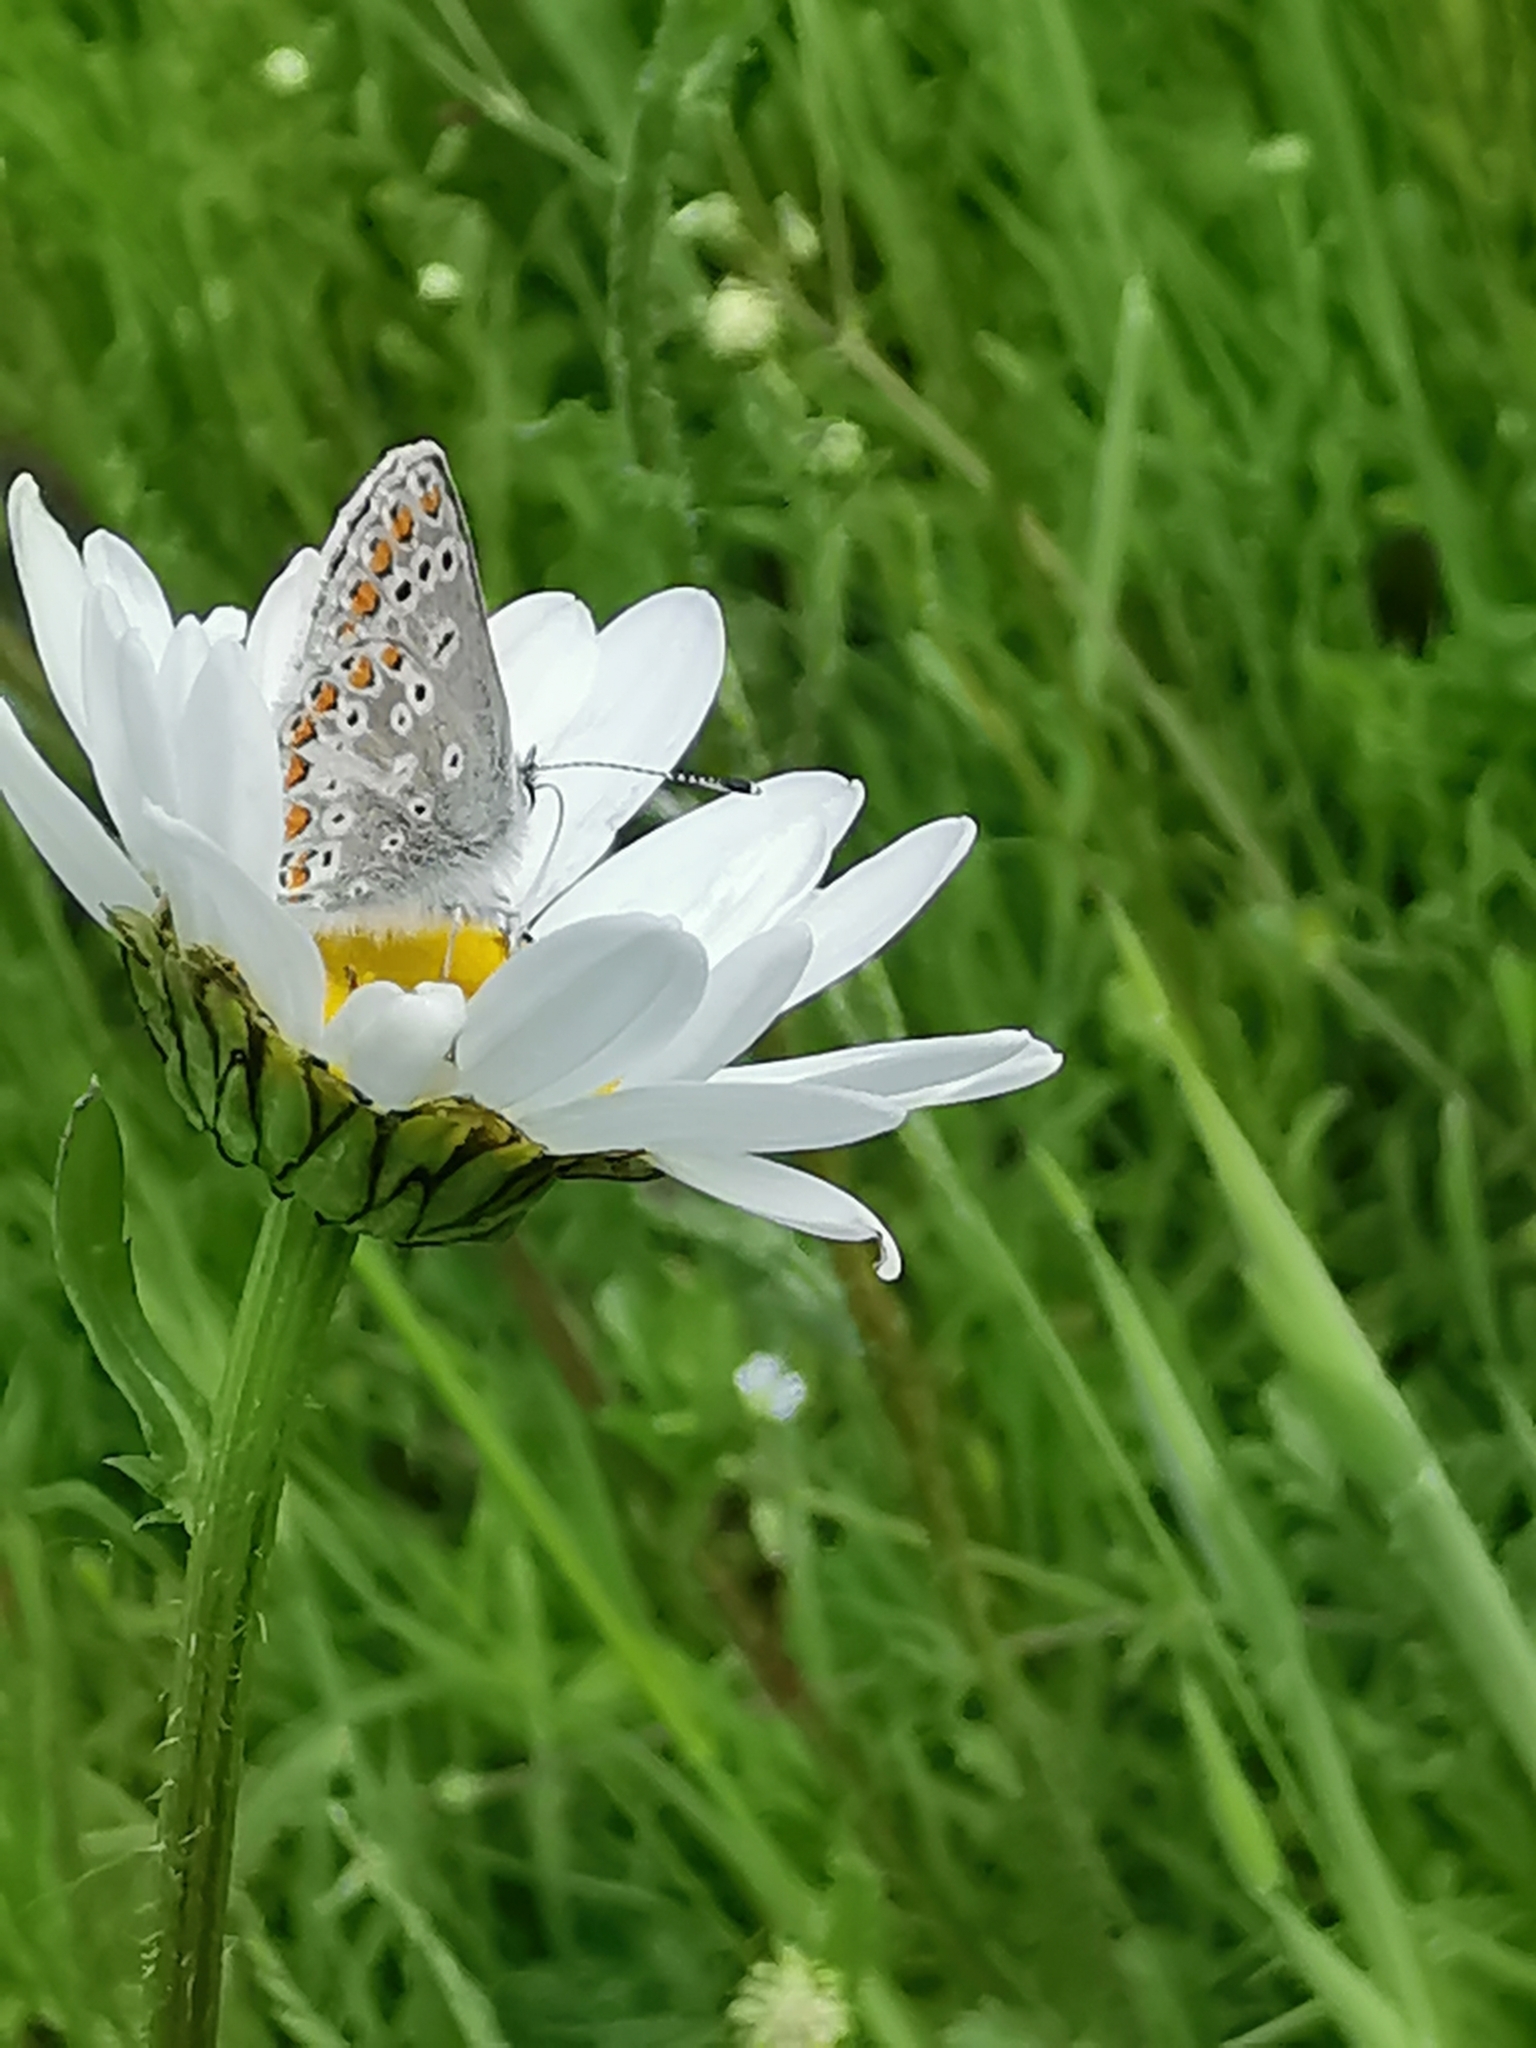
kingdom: Animalia
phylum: Arthropoda
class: Insecta
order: Lepidoptera
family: Lycaenidae
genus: Aricia
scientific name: Aricia agestis
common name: Brown argus
